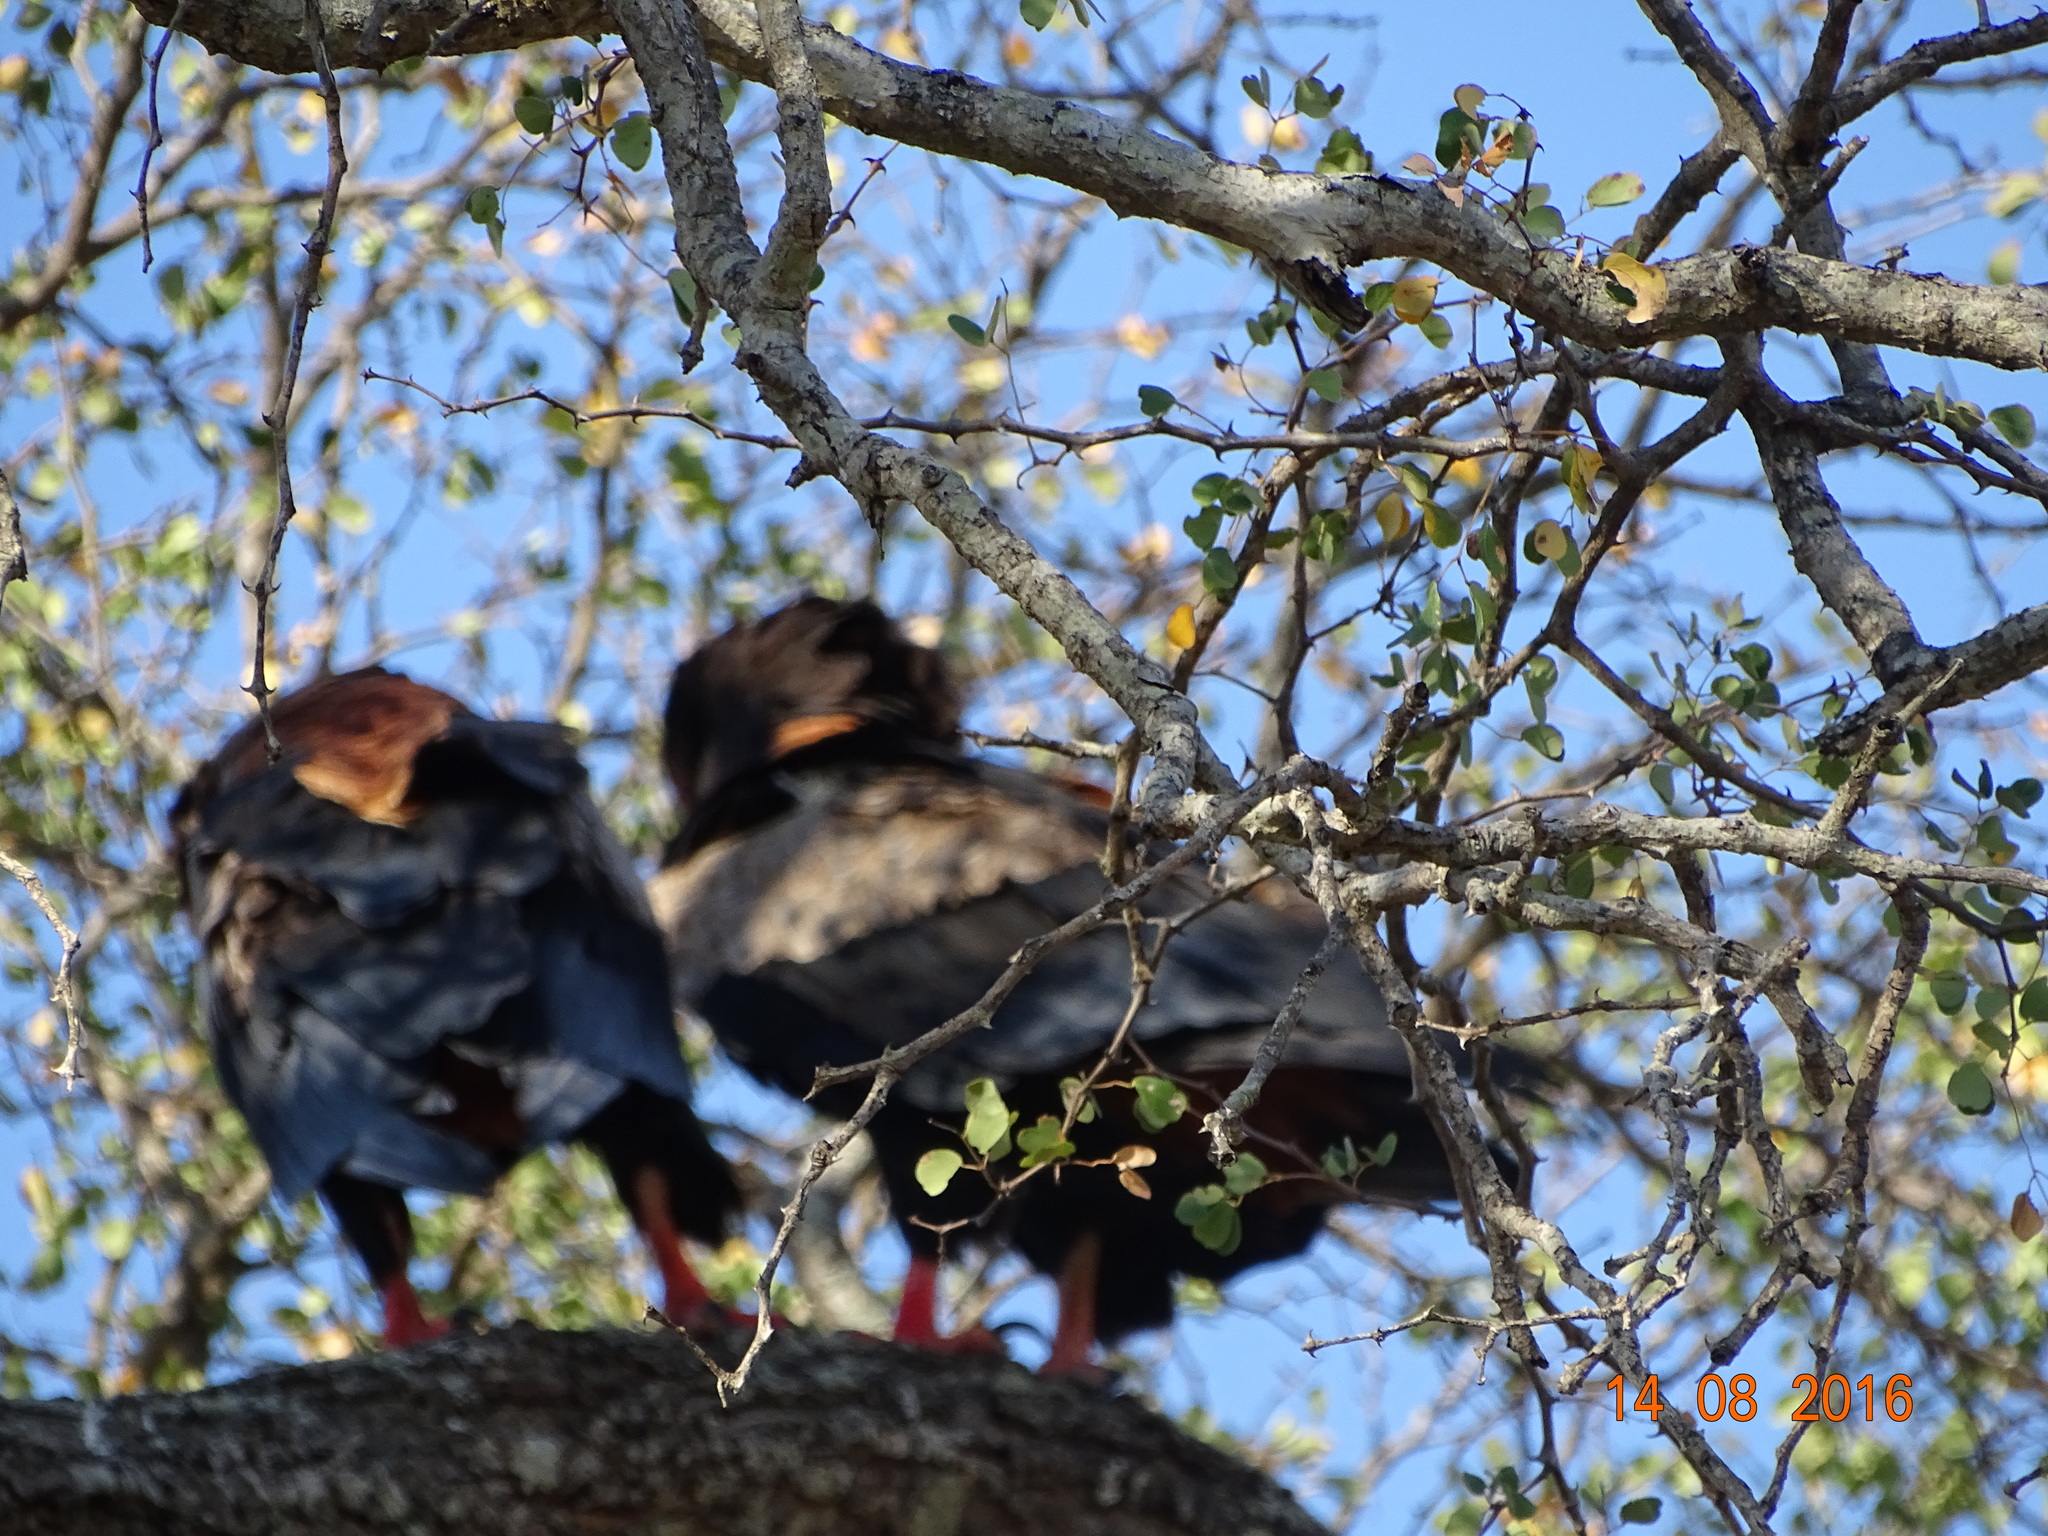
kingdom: Animalia
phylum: Chordata
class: Aves
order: Accipitriformes
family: Accipitridae
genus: Terathopius
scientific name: Terathopius ecaudatus
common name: Bateleur
